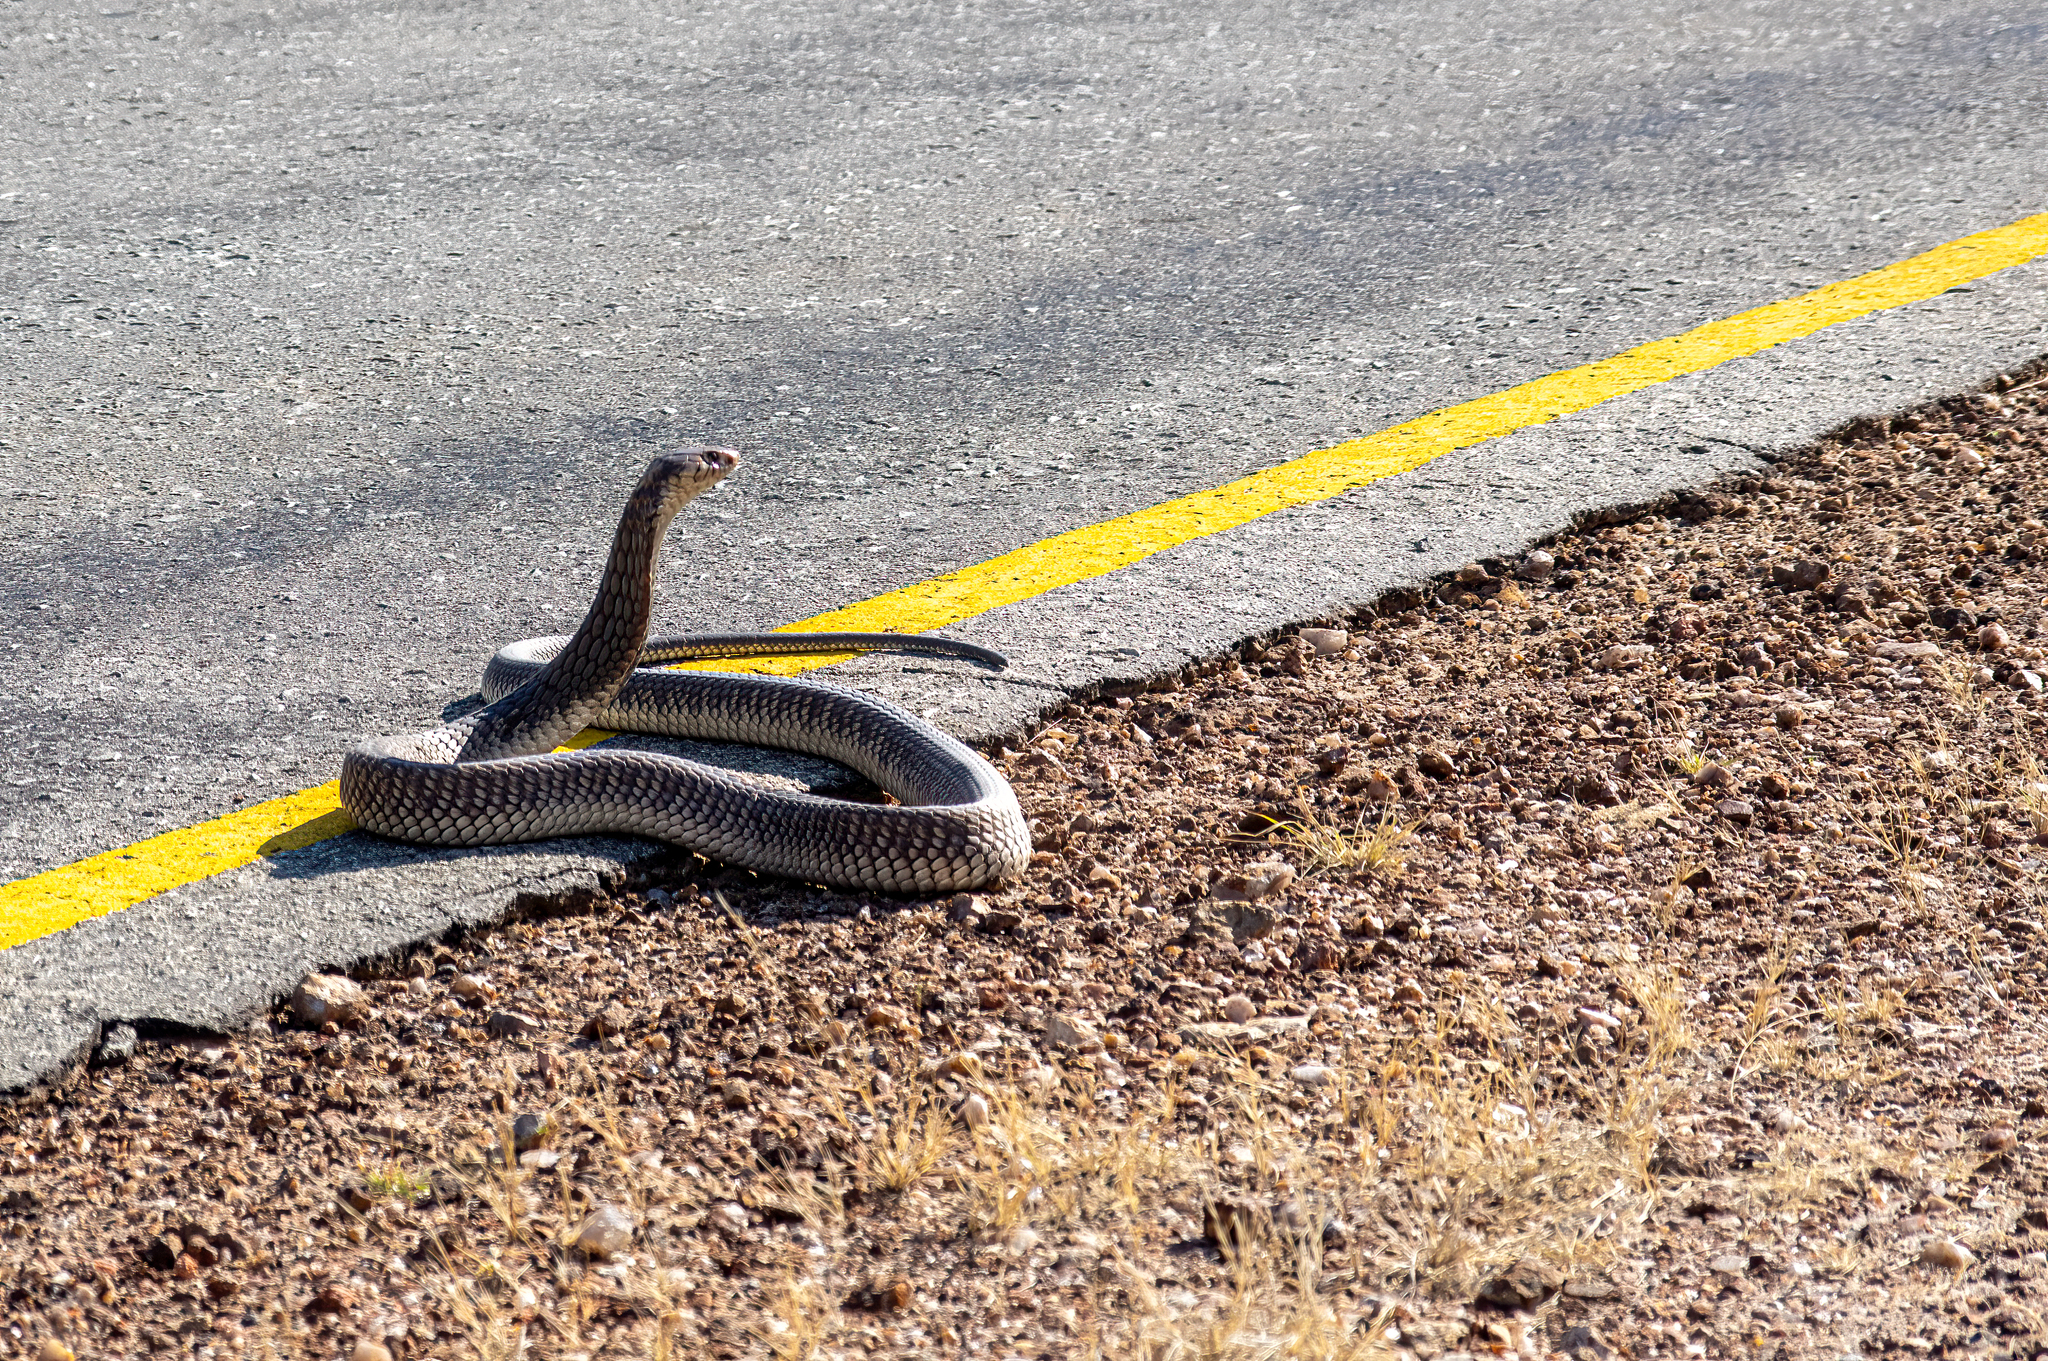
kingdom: Animalia
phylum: Chordata
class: Squamata
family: Elapidae
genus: Naja
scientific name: Naja anchietae
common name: Anchieta's cobra
